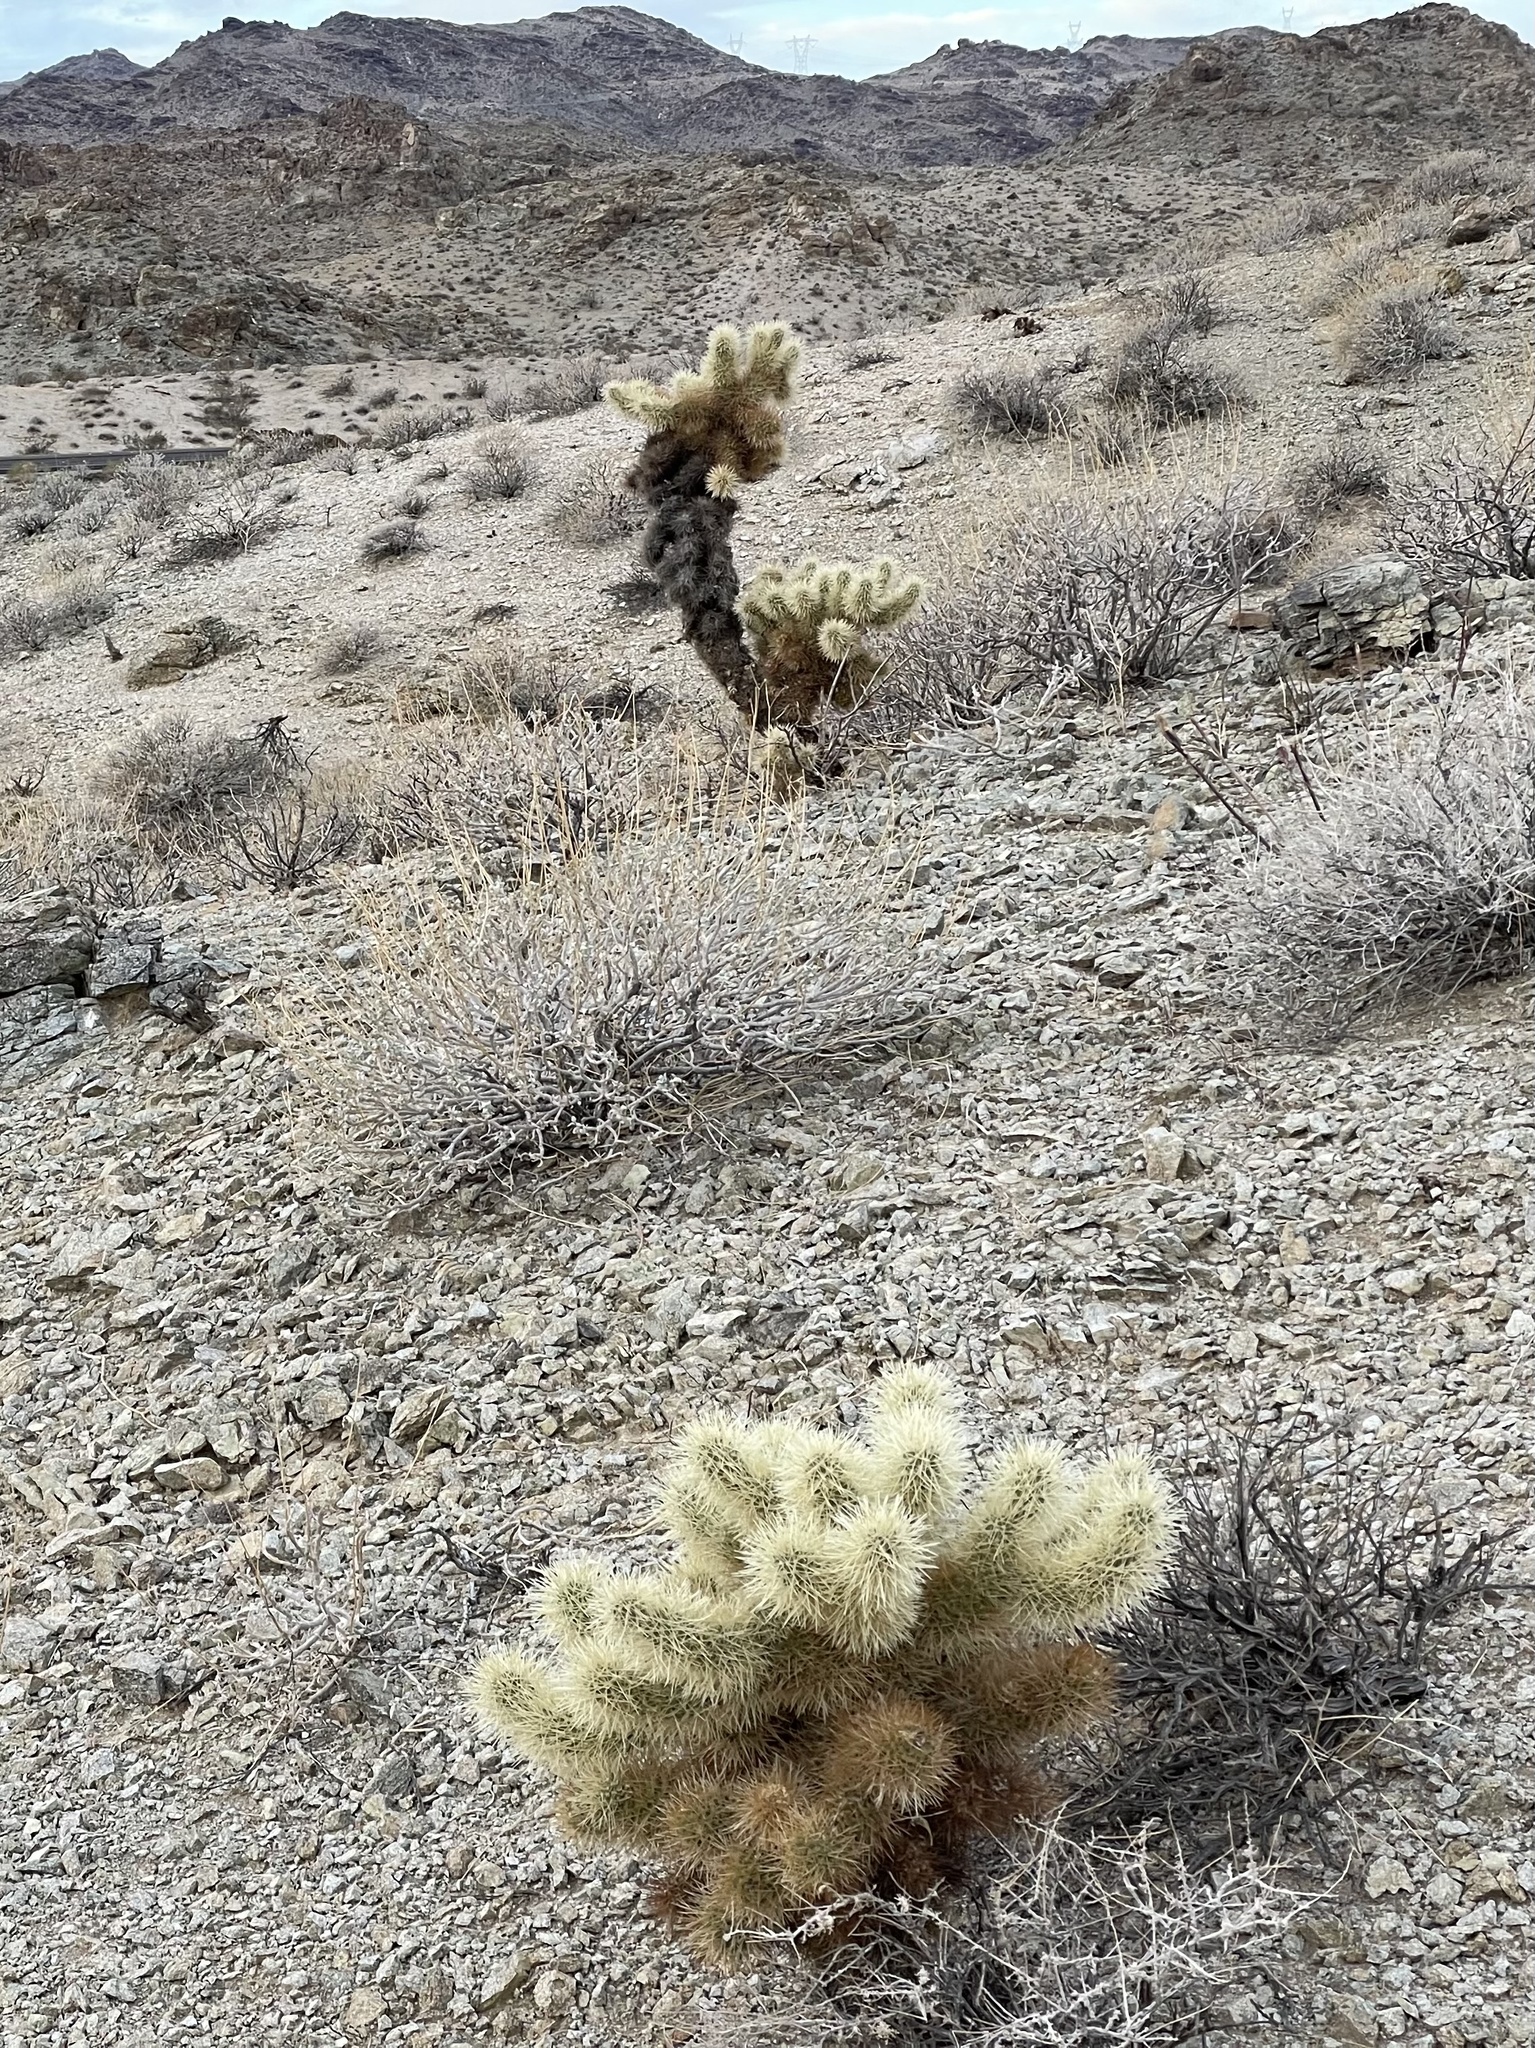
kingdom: Plantae
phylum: Tracheophyta
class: Magnoliopsida
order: Caryophyllales
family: Cactaceae
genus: Cylindropuntia
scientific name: Cylindropuntia fosbergii
